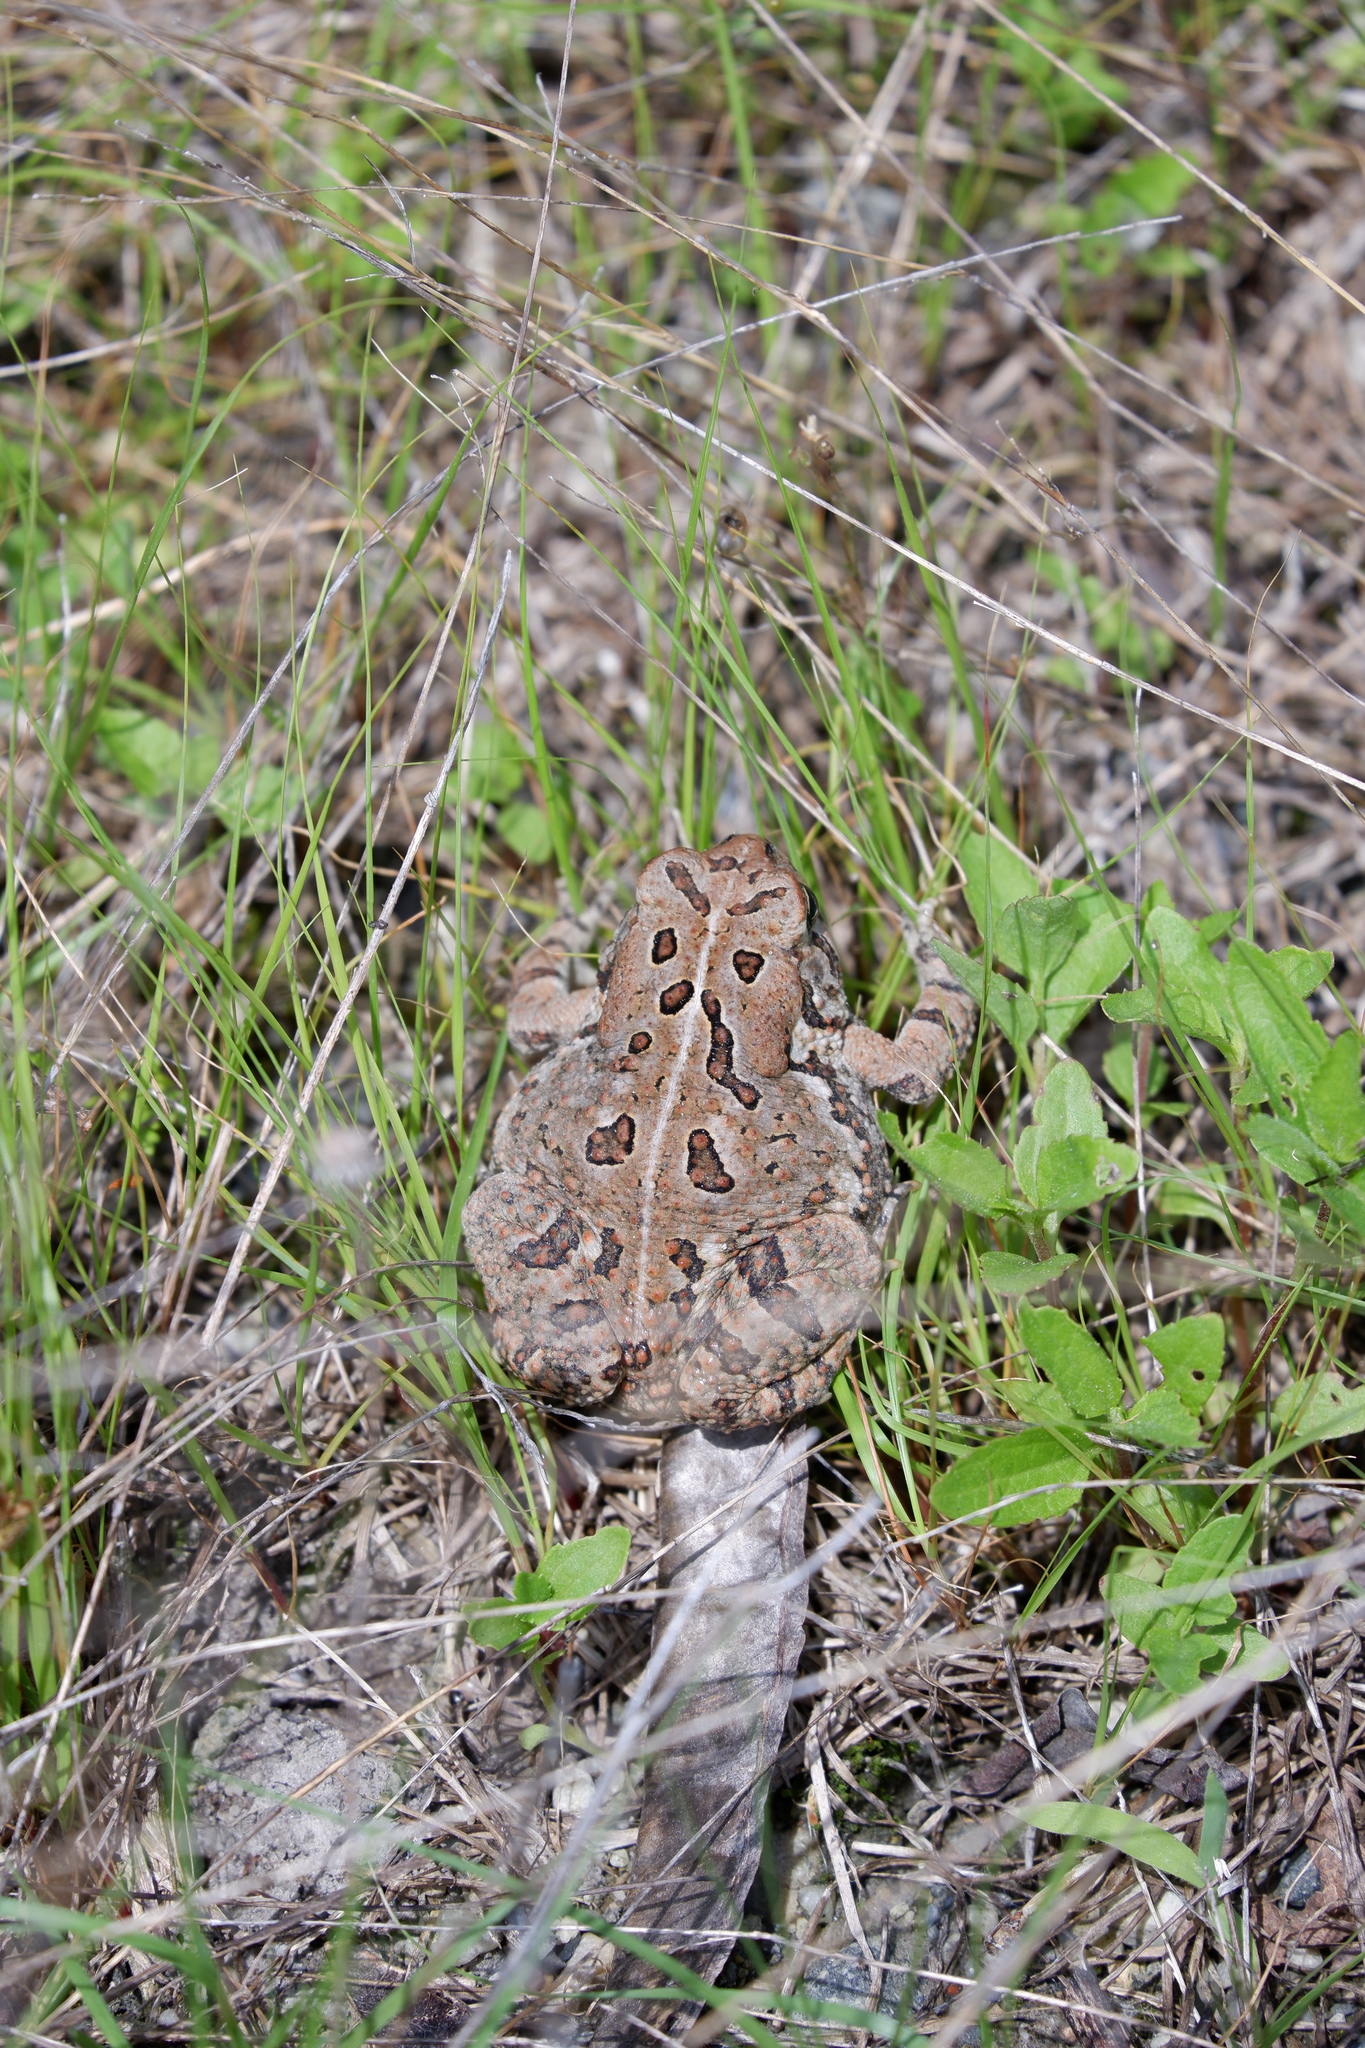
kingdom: Animalia
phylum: Chordata
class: Amphibia
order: Anura
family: Bufonidae
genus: Anaxyrus
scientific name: Anaxyrus fowleri
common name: Fowler's toad
